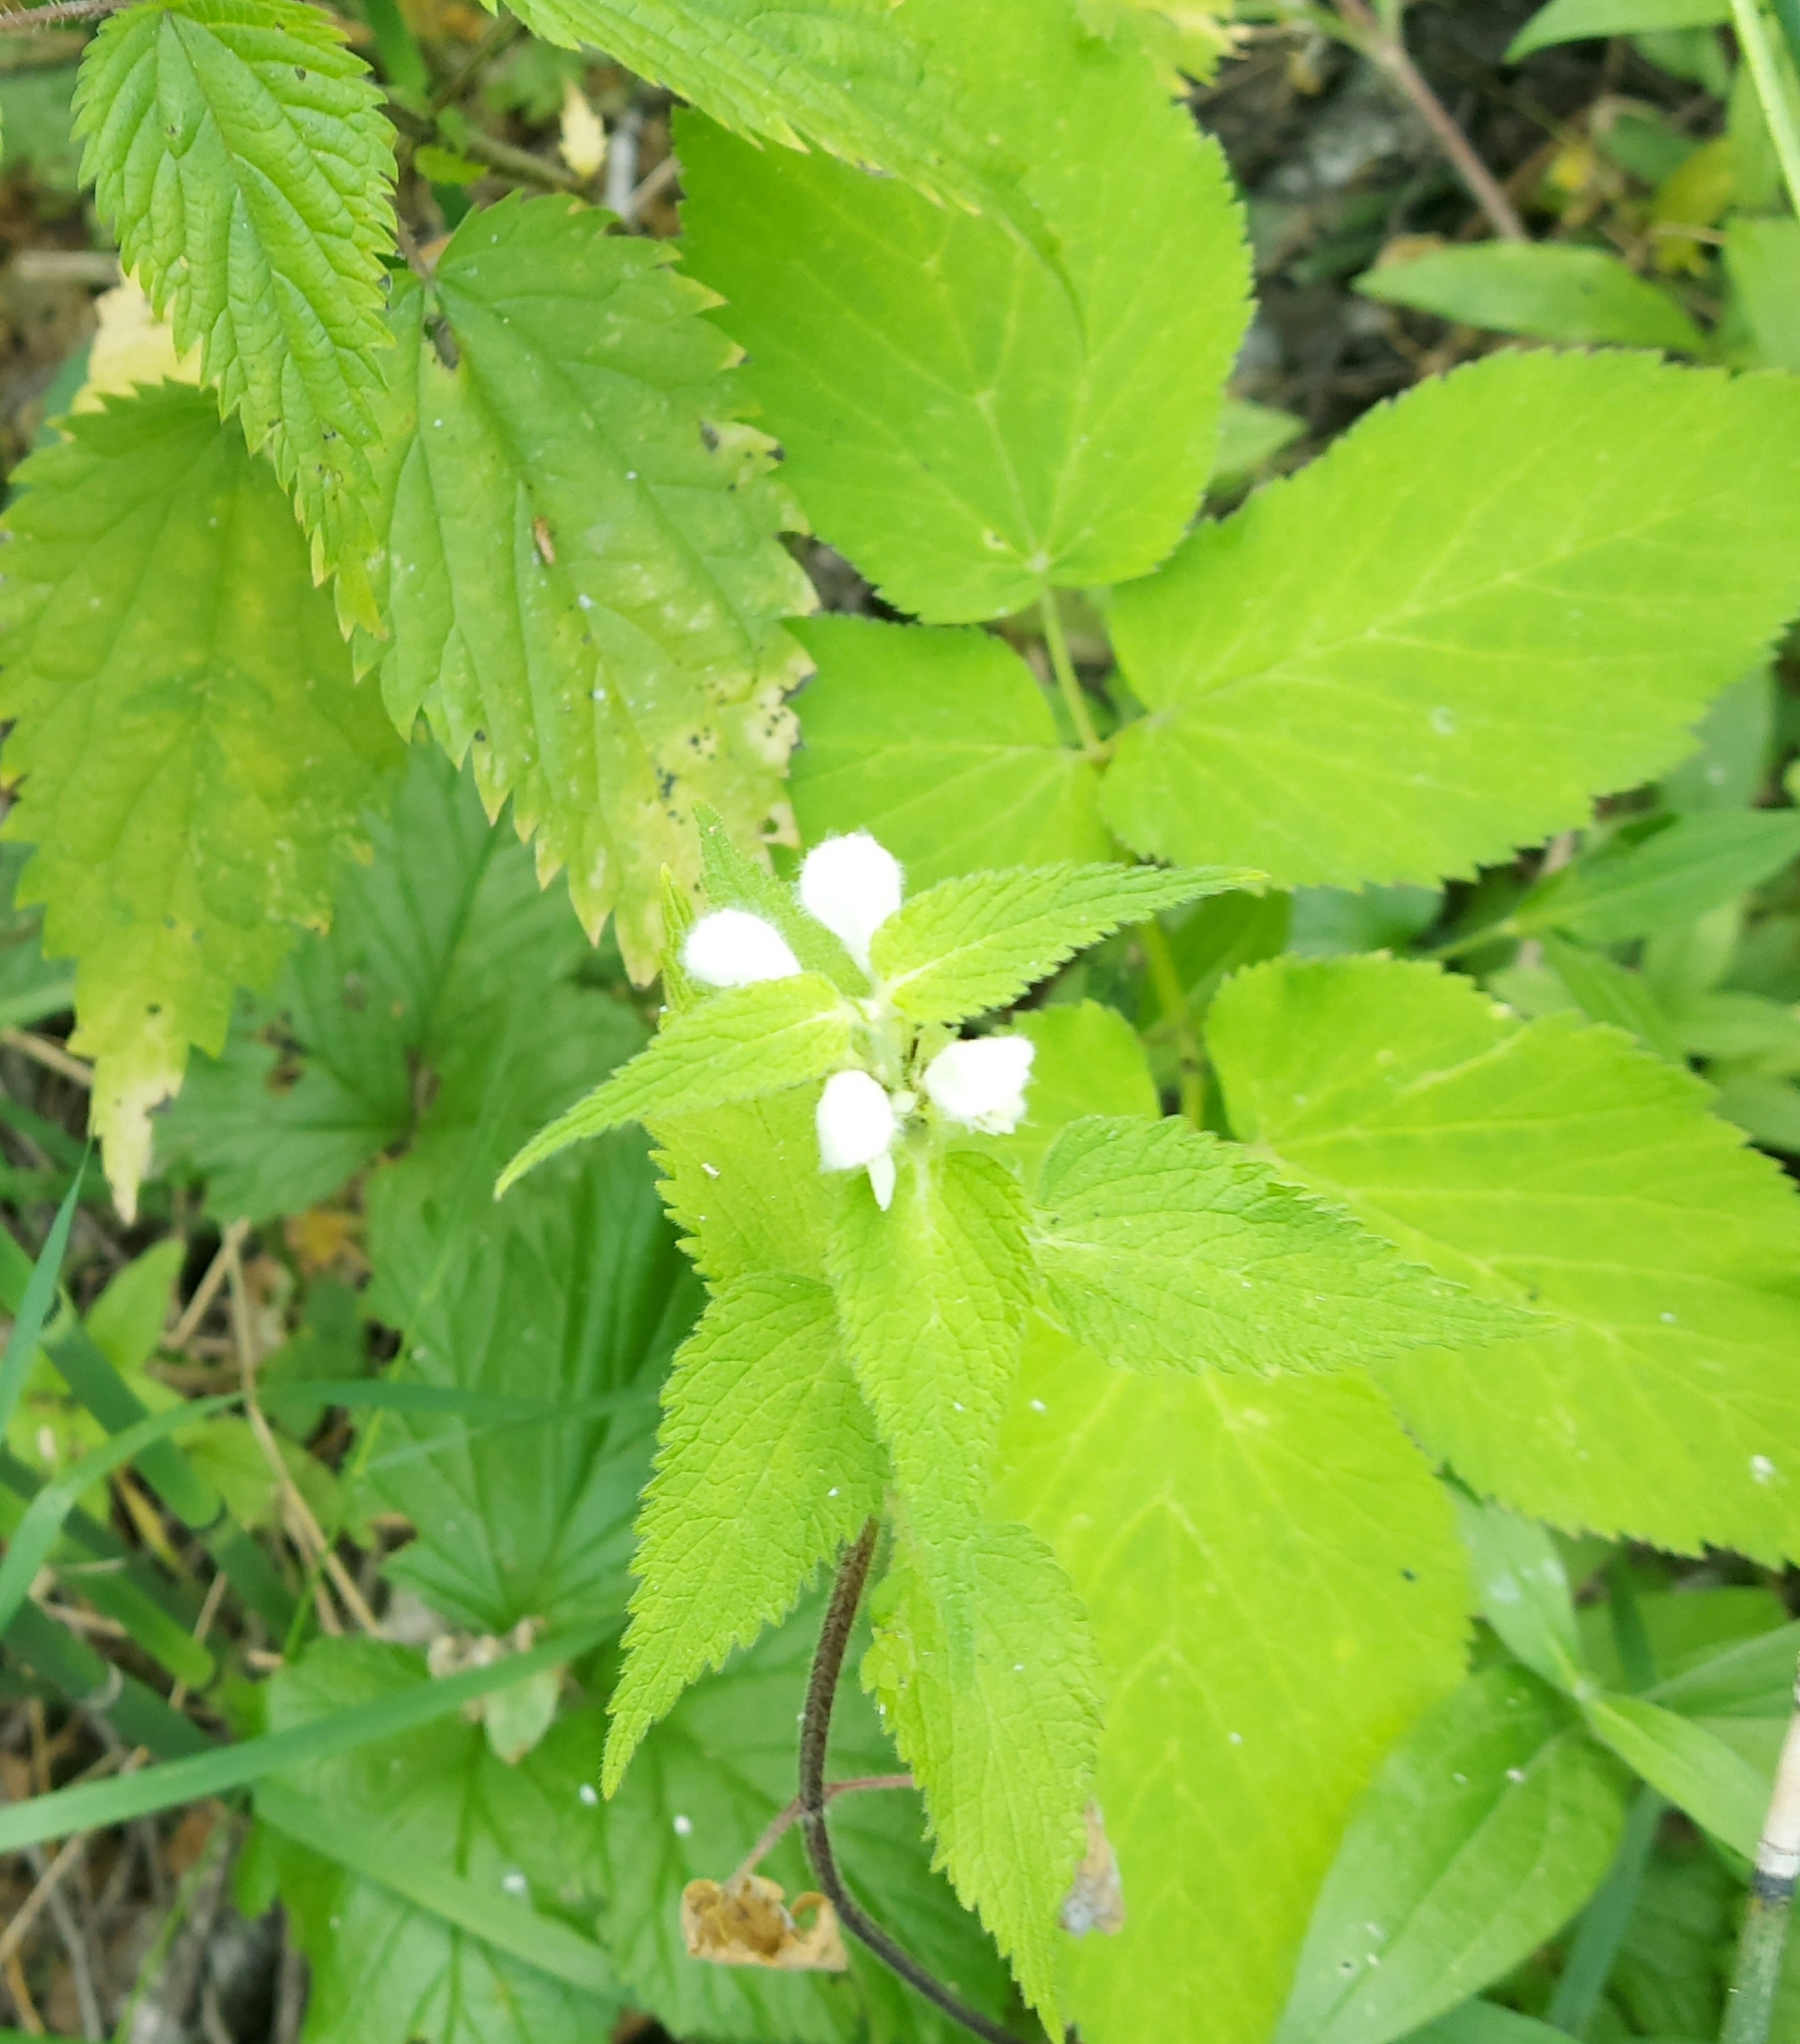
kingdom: Plantae
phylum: Tracheophyta
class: Magnoliopsida
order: Lamiales
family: Lamiaceae
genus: Lamium
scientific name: Lamium album
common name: White dead-nettle
